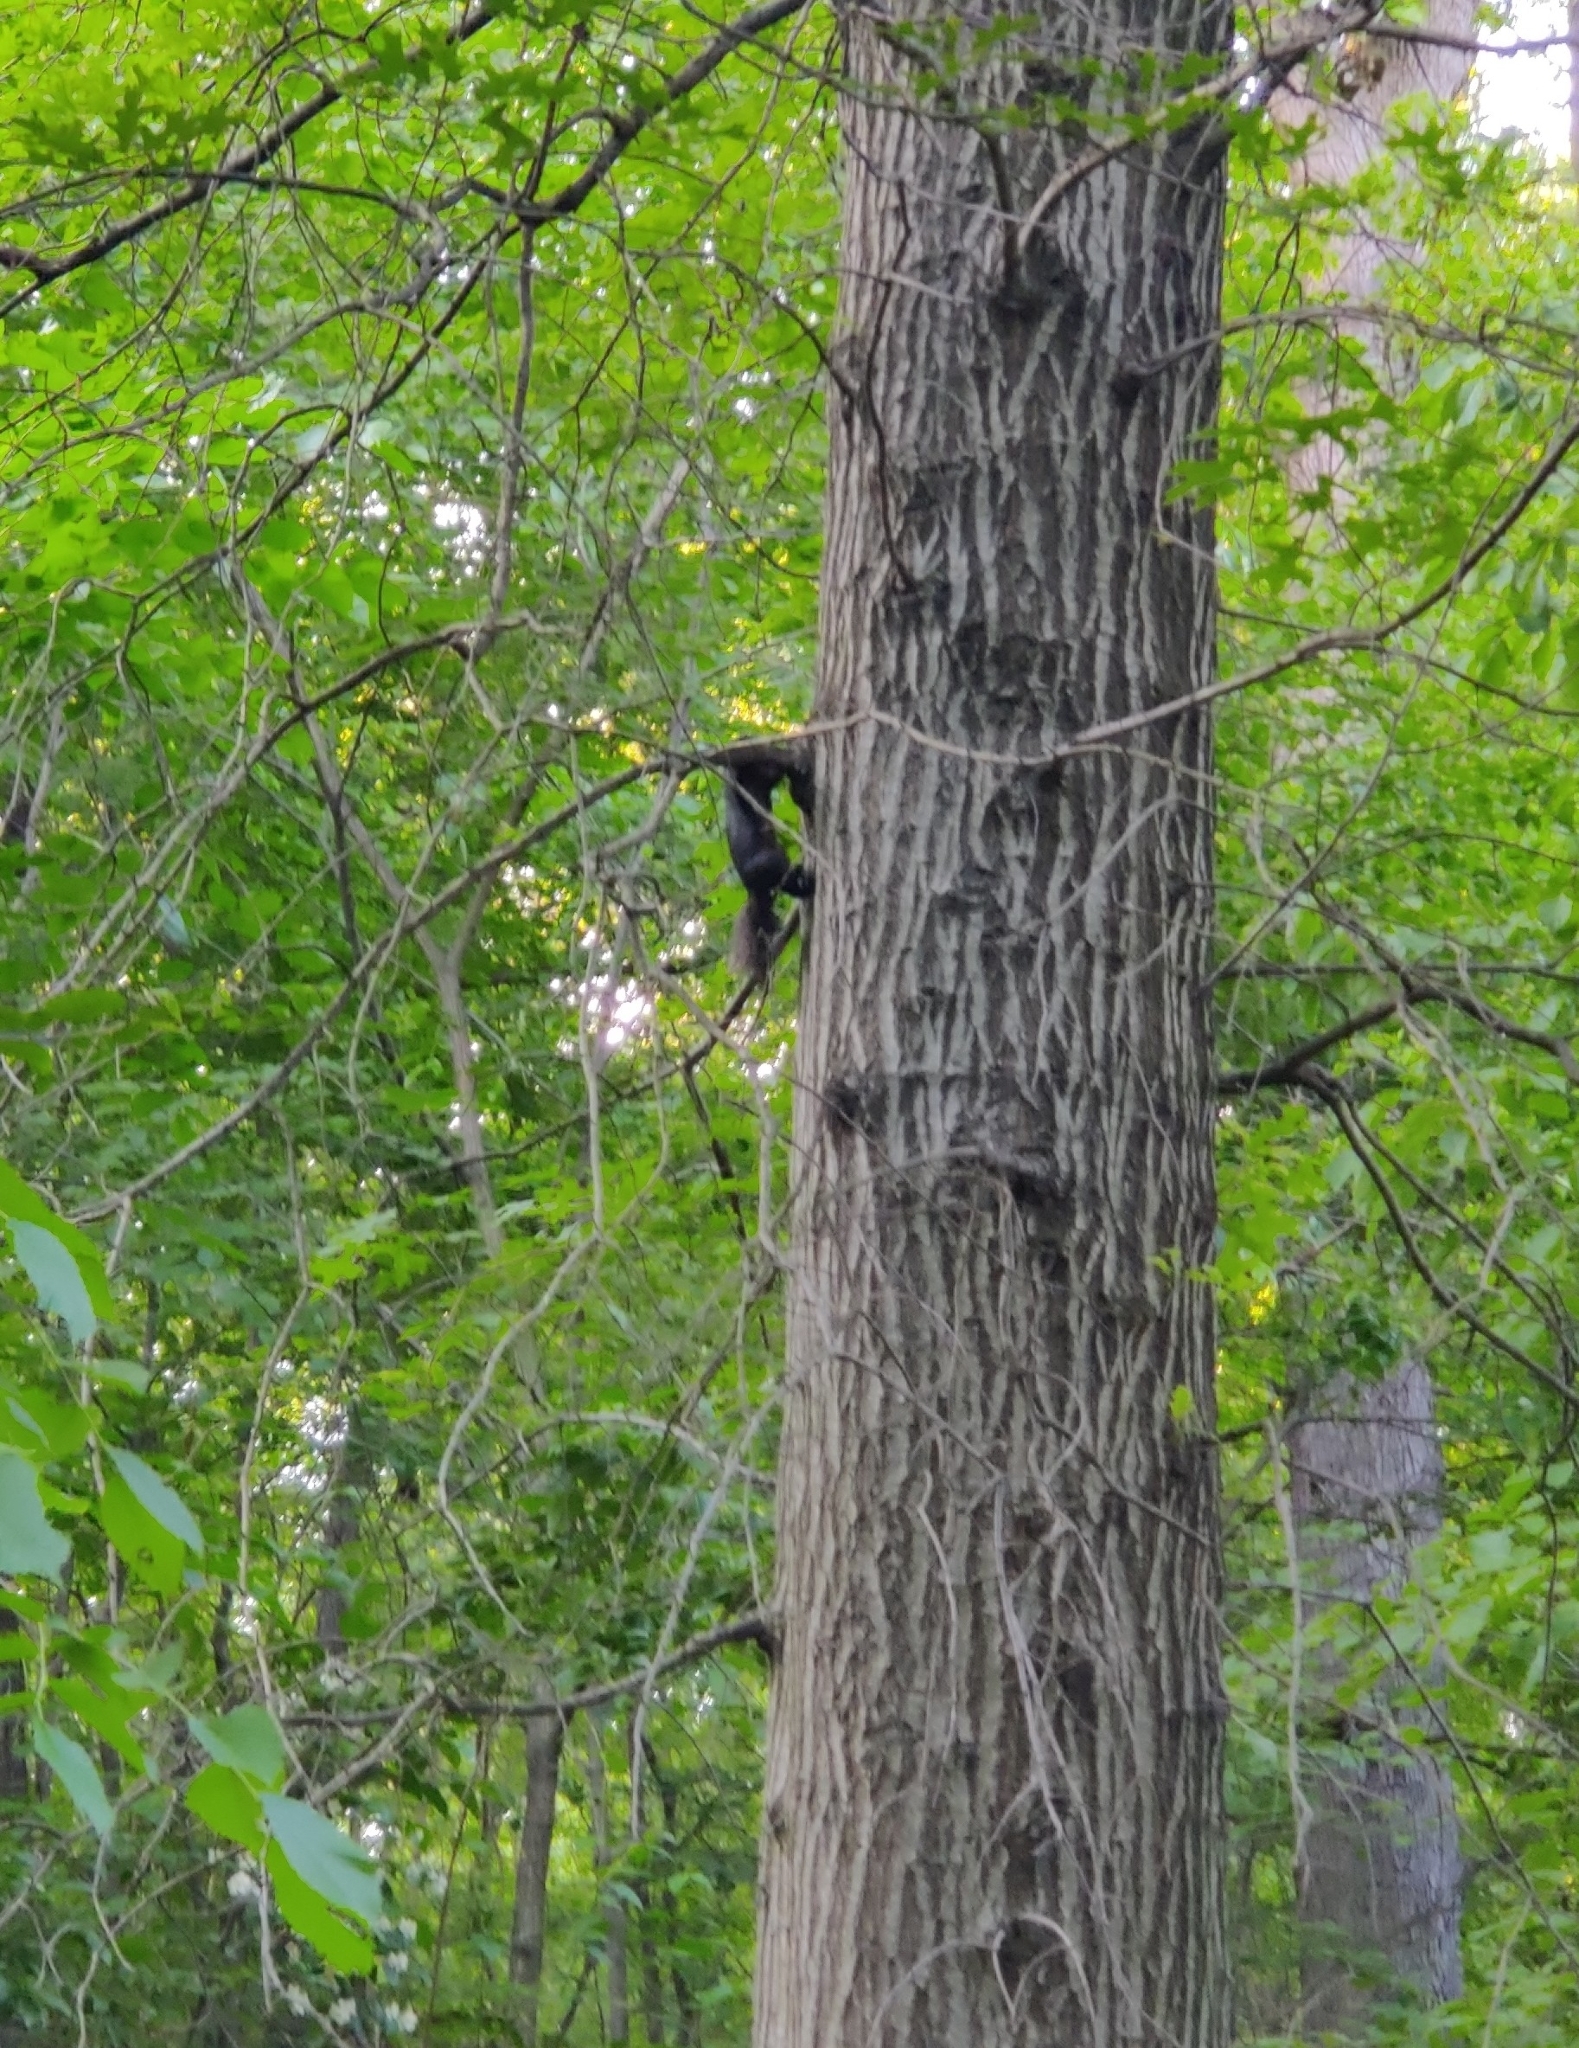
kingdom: Animalia
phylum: Chordata
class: Mammalia
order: Rodentia
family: Sciuridae
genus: Sciurus
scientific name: Sciurus carolinensis
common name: Eastern gray squirrel
